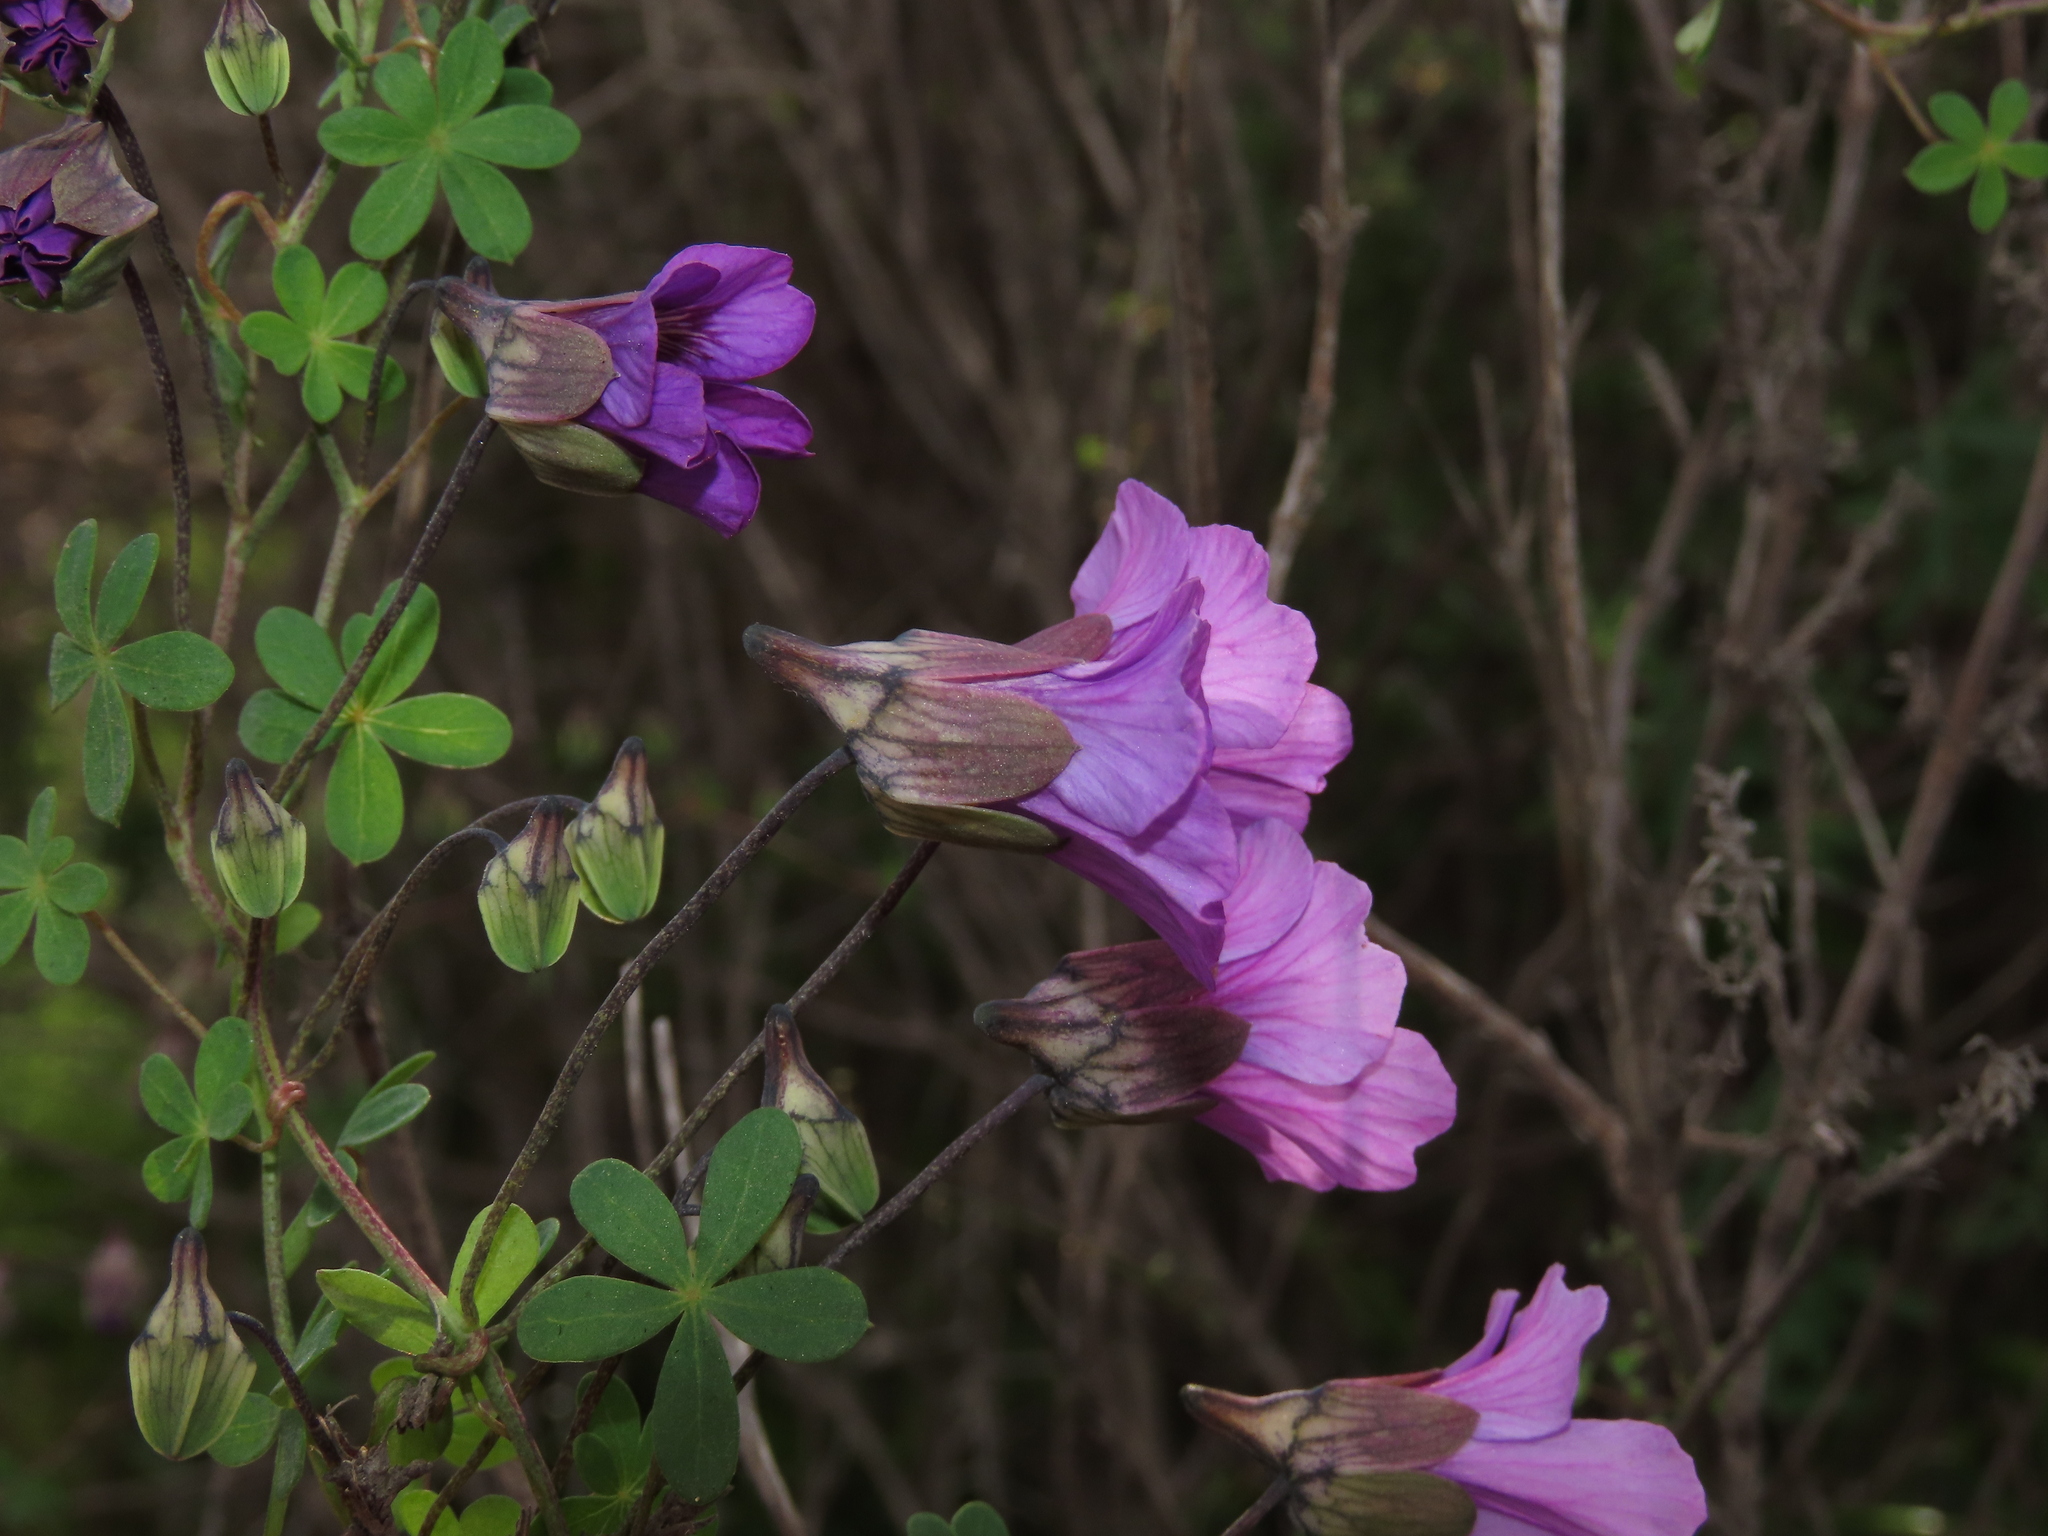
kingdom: Plantae
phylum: Tracheophyta
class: Magnoliopsida
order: Brassicales
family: Tropaeolaceae
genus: Tropaeolum
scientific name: Tropaeolum austropurpureum
